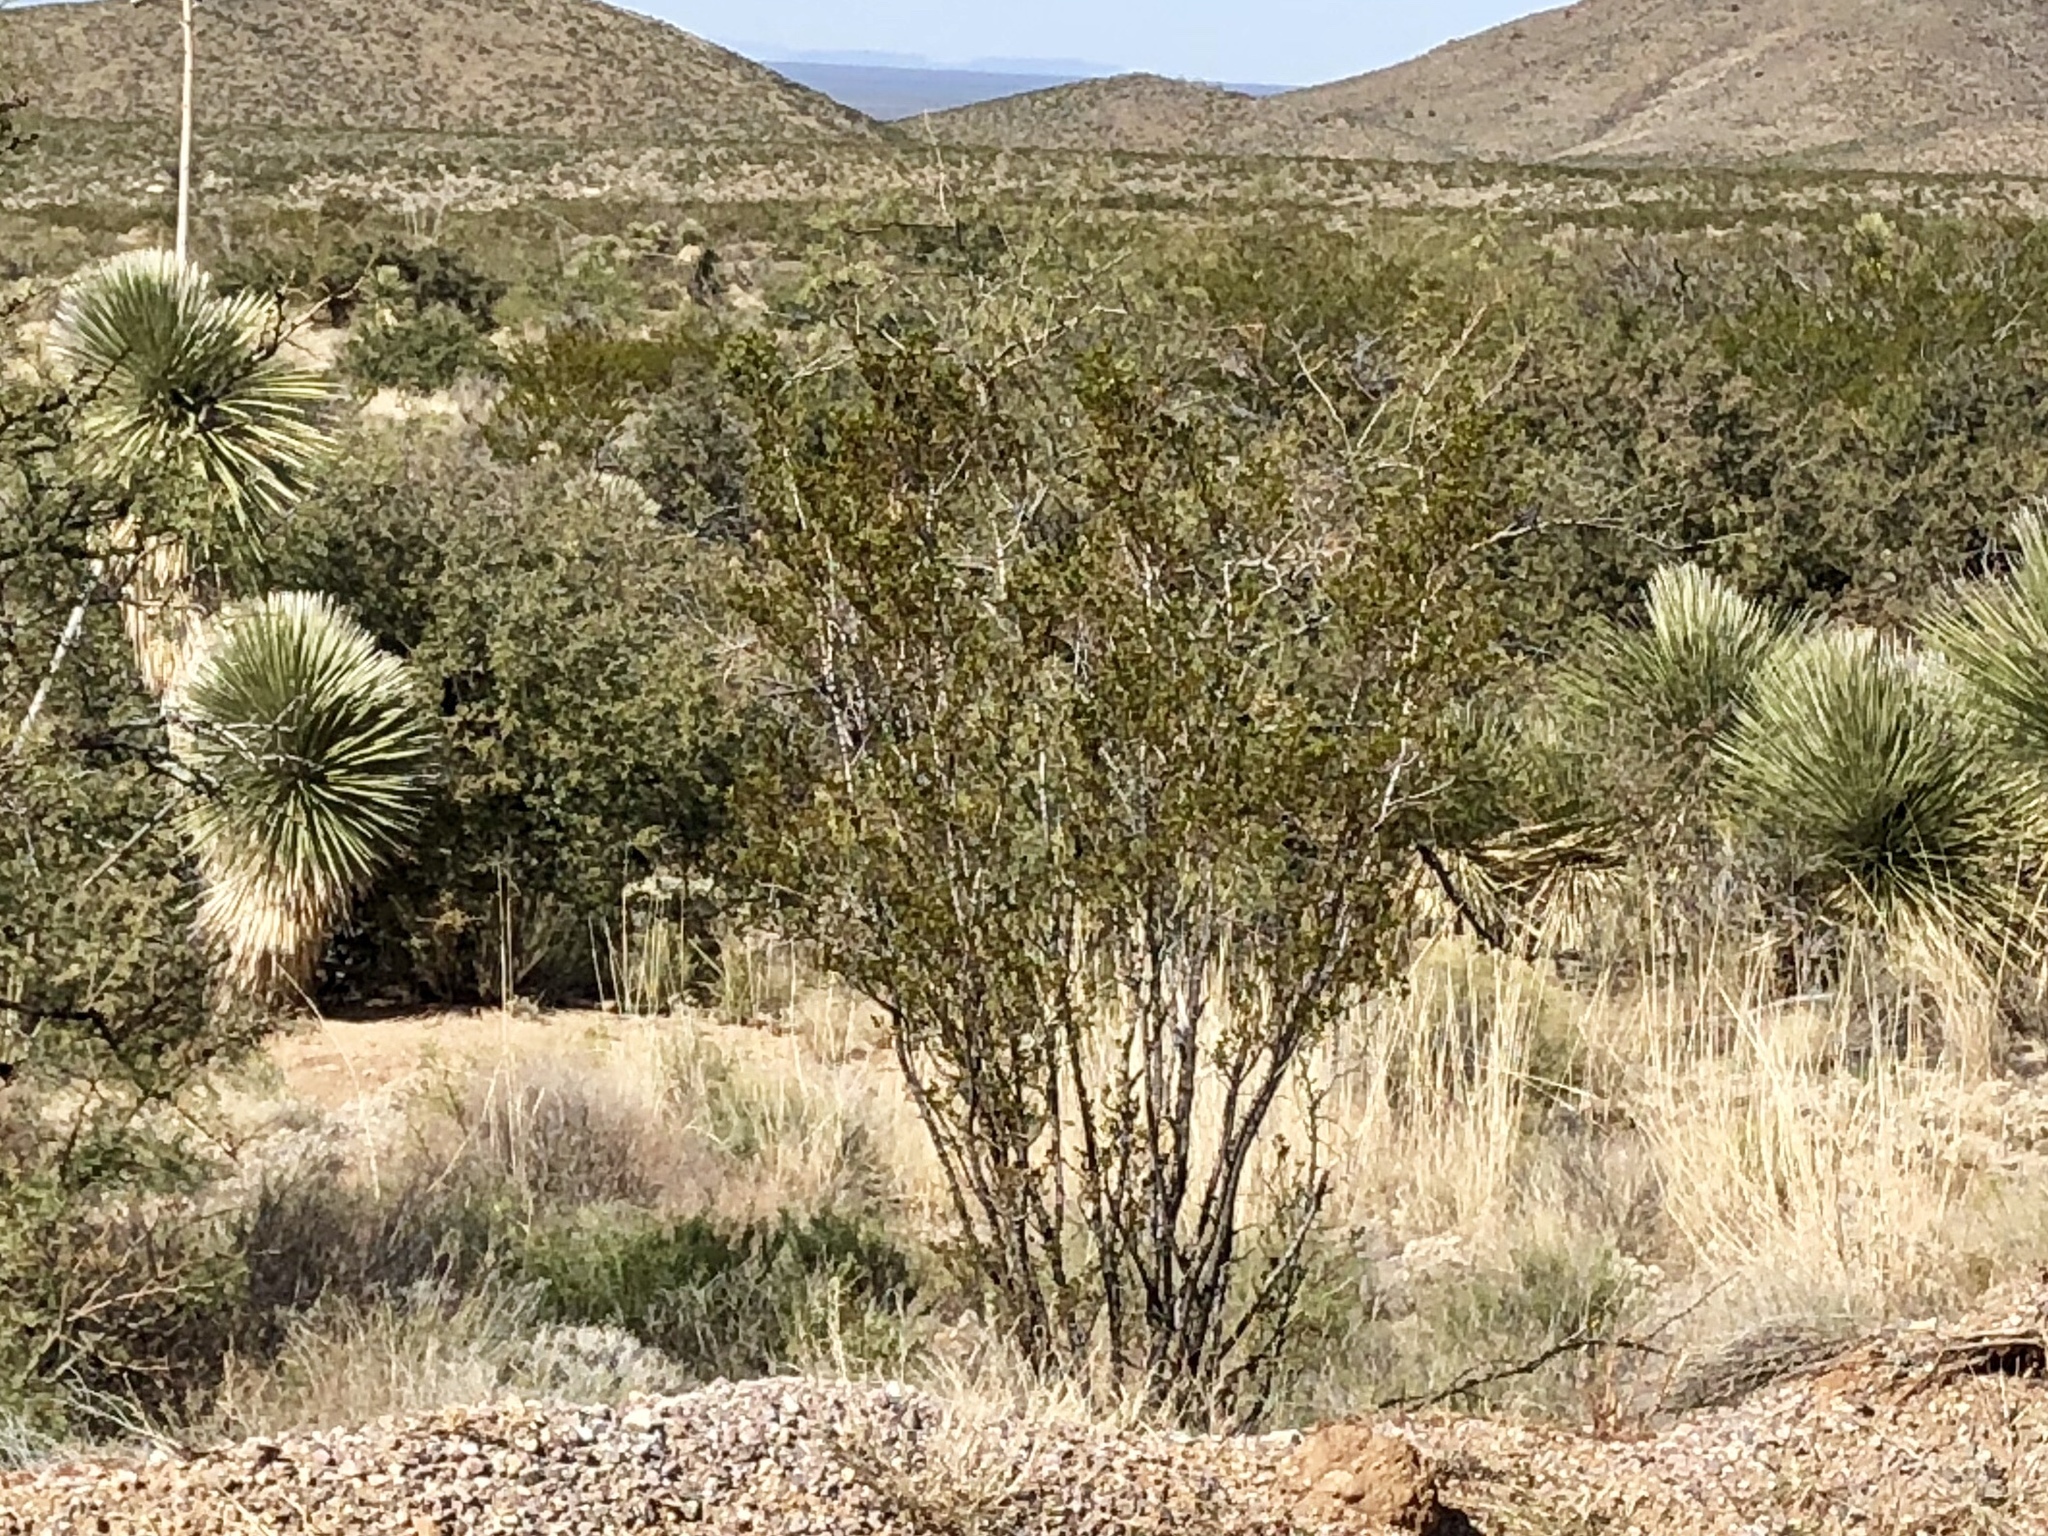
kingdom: Plantae
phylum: Tracheophyta
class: Magnoliopsida
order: Zygophyllales
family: Zygophyllaceae
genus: Larrea
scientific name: Larrea tridentata
